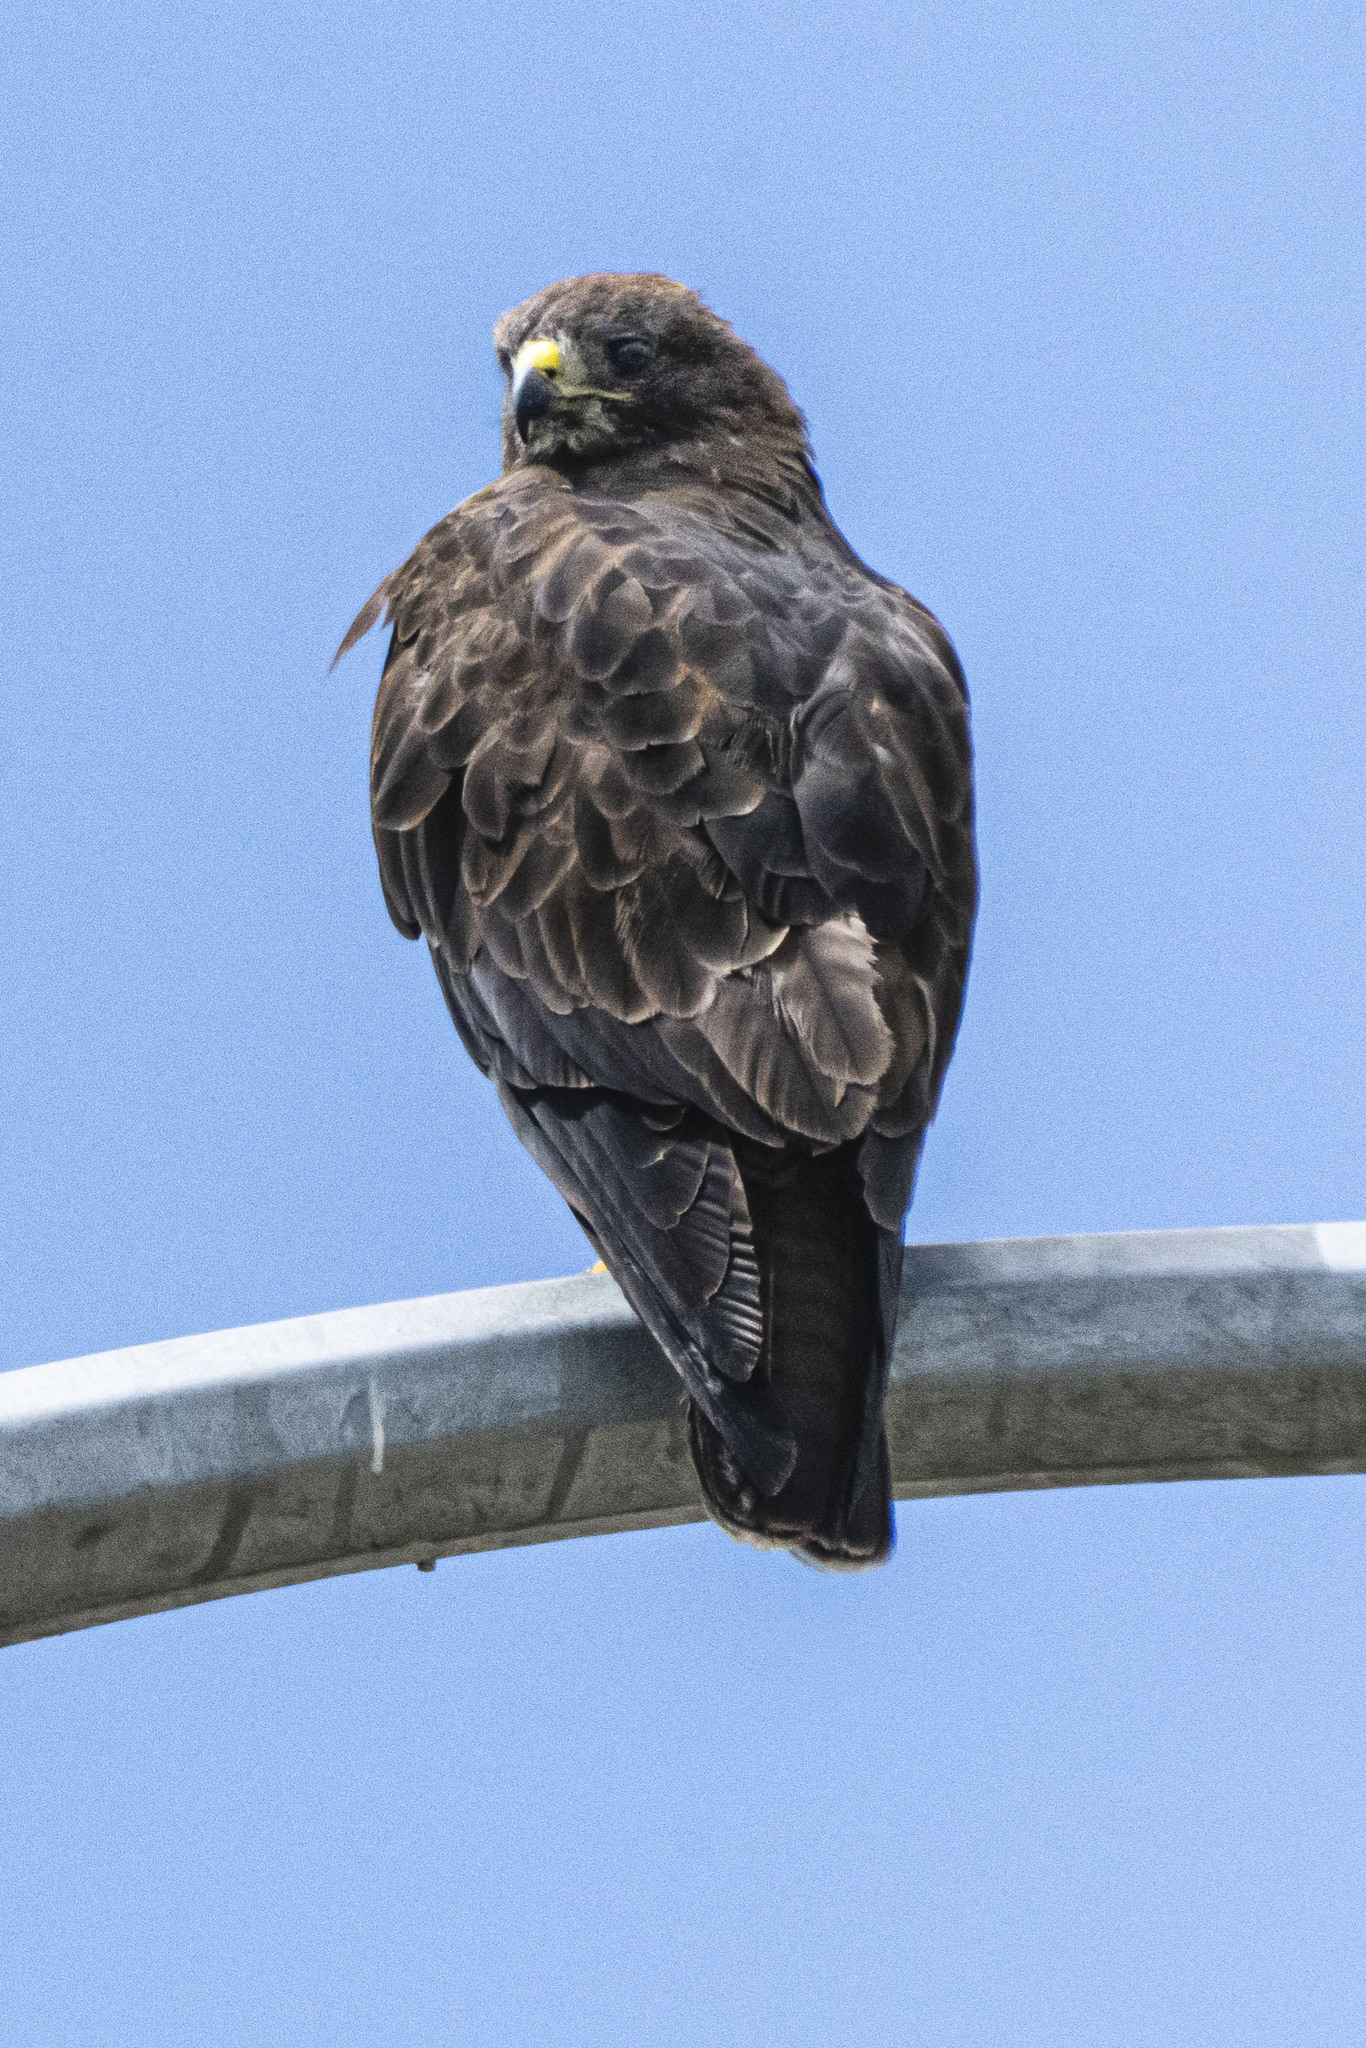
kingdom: Animalia
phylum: Chordata
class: Aves
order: Accipitriformes
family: Accipitridae
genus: Buteo
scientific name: Buteo swainsoni
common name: Swainson's hawk
